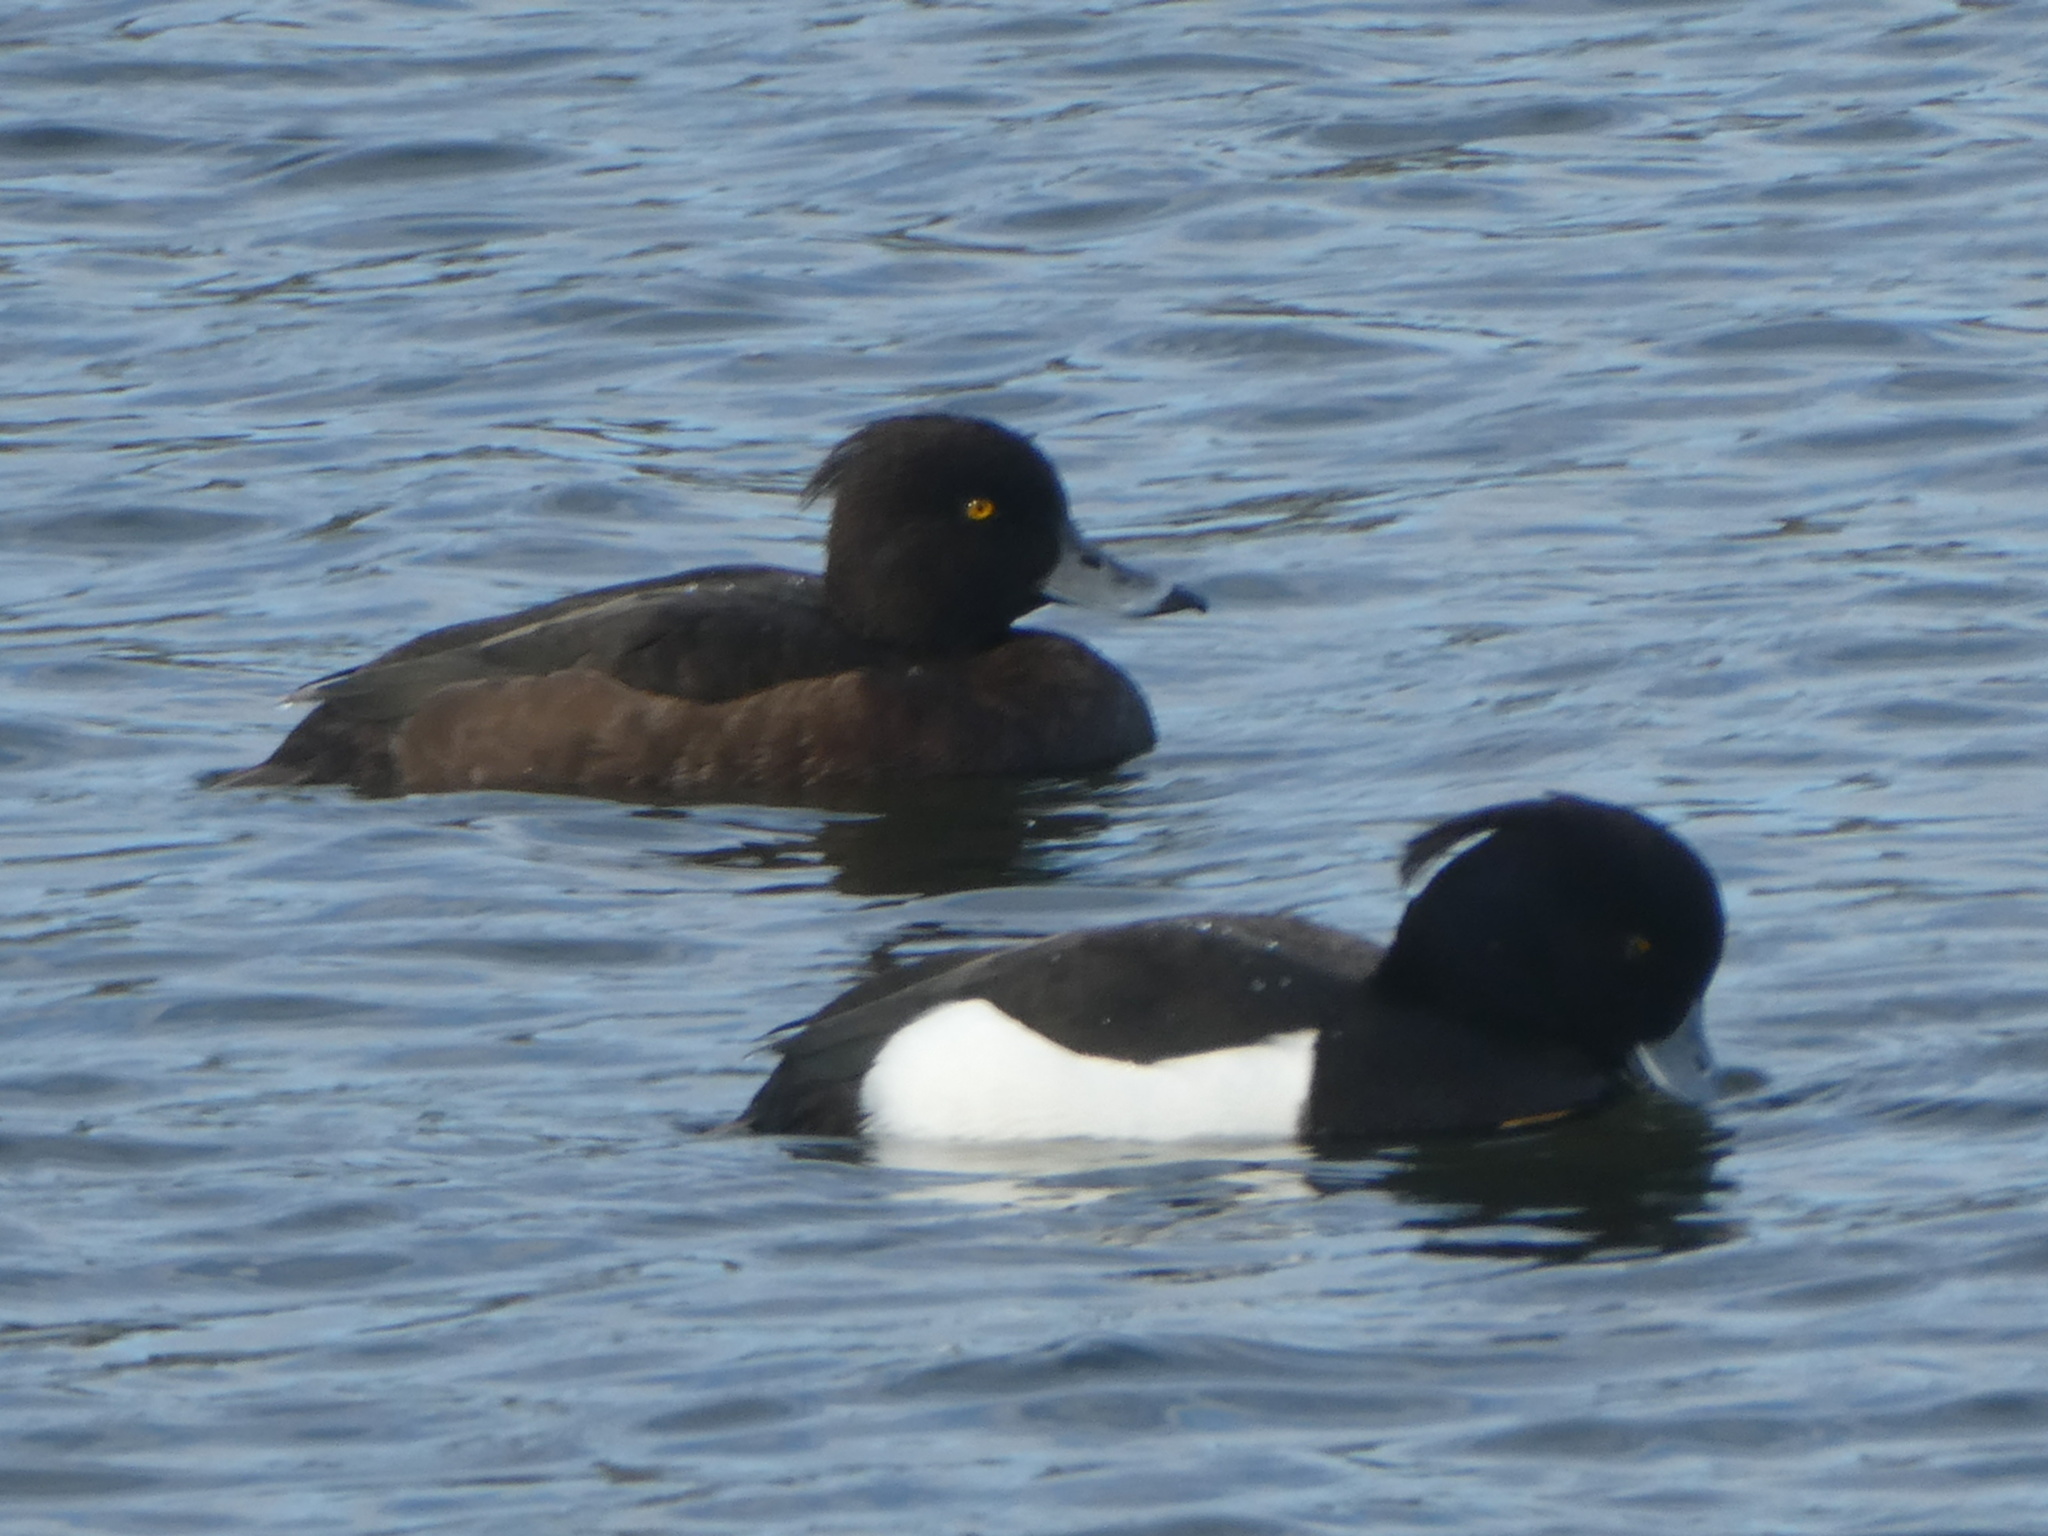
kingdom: Animalia
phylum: Chordata
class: Aves
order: Anseriformes
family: Anatidae
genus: Aythya
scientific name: Aythya fuligula
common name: Tufted duck
